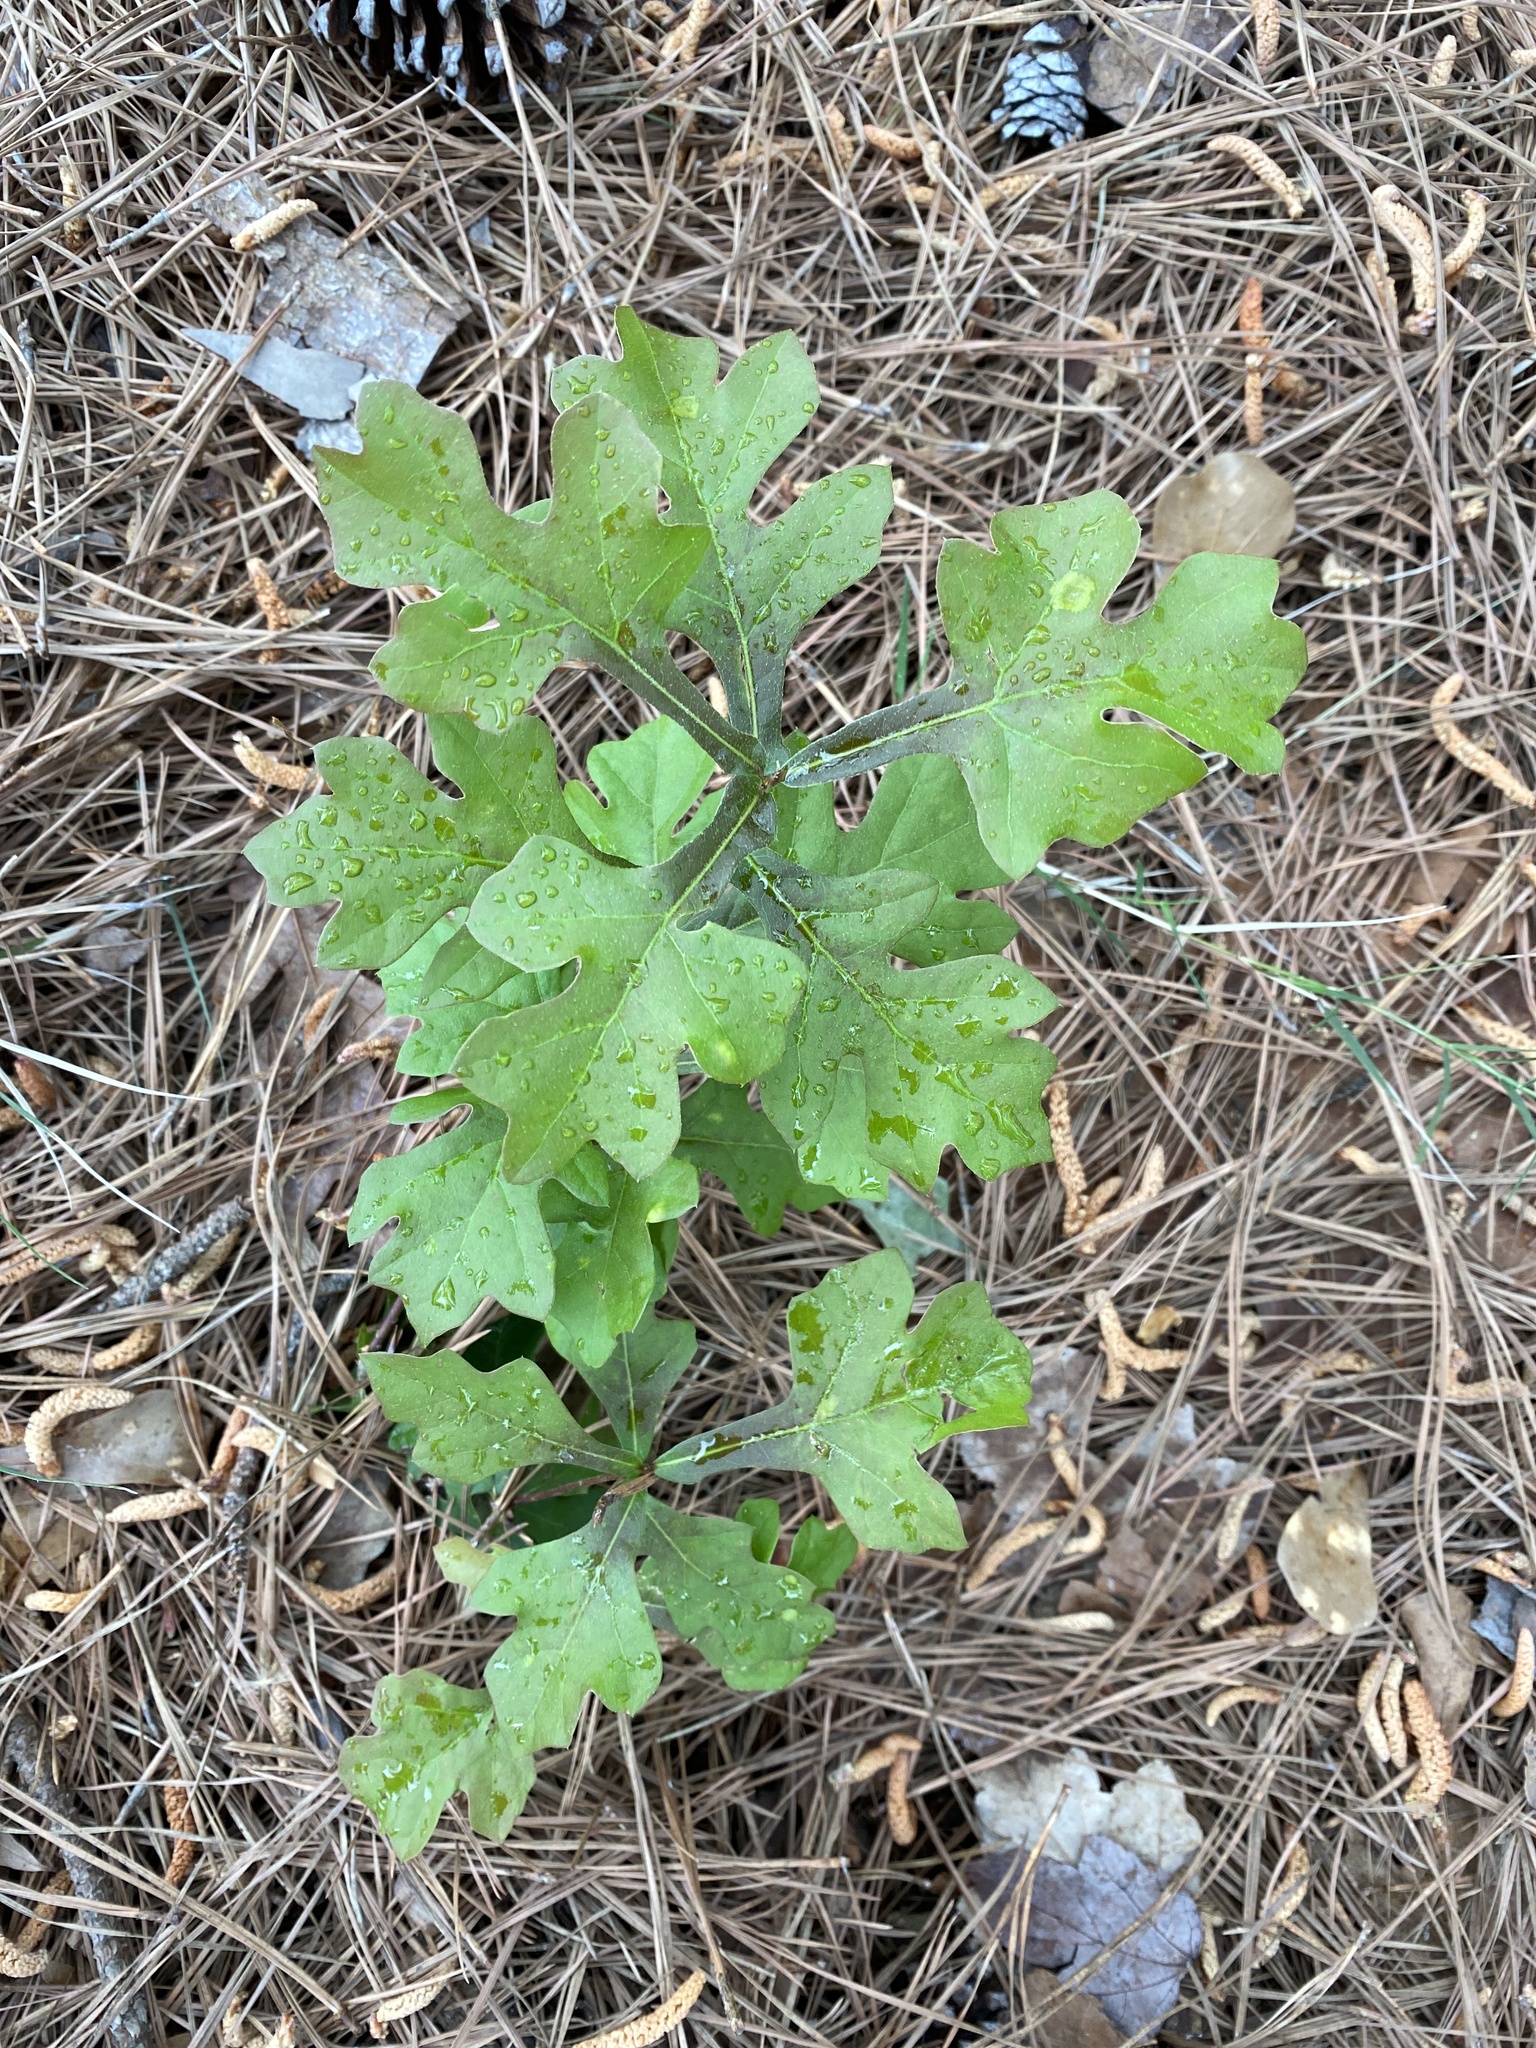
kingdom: Plantae
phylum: Tracheophyta
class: Magnoliopsida
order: Fagales
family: Fagaceae
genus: Quercus
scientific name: Quercus nigra
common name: Water oak
